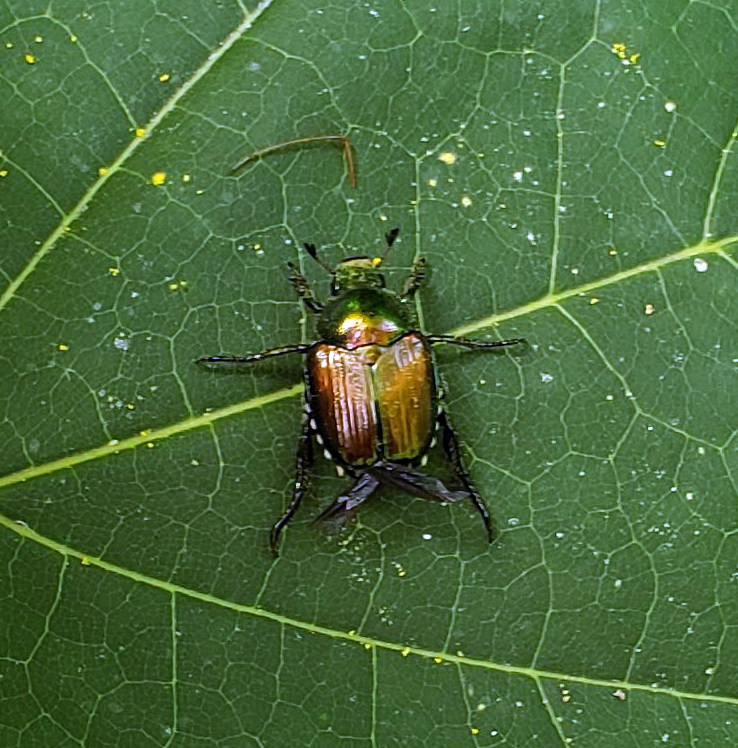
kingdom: Animalia
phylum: Arthropoda
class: Insecta
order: Coleoptera
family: Scarabaeidae
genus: Popillia
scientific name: Popillia japonica
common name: Japanese beetle
